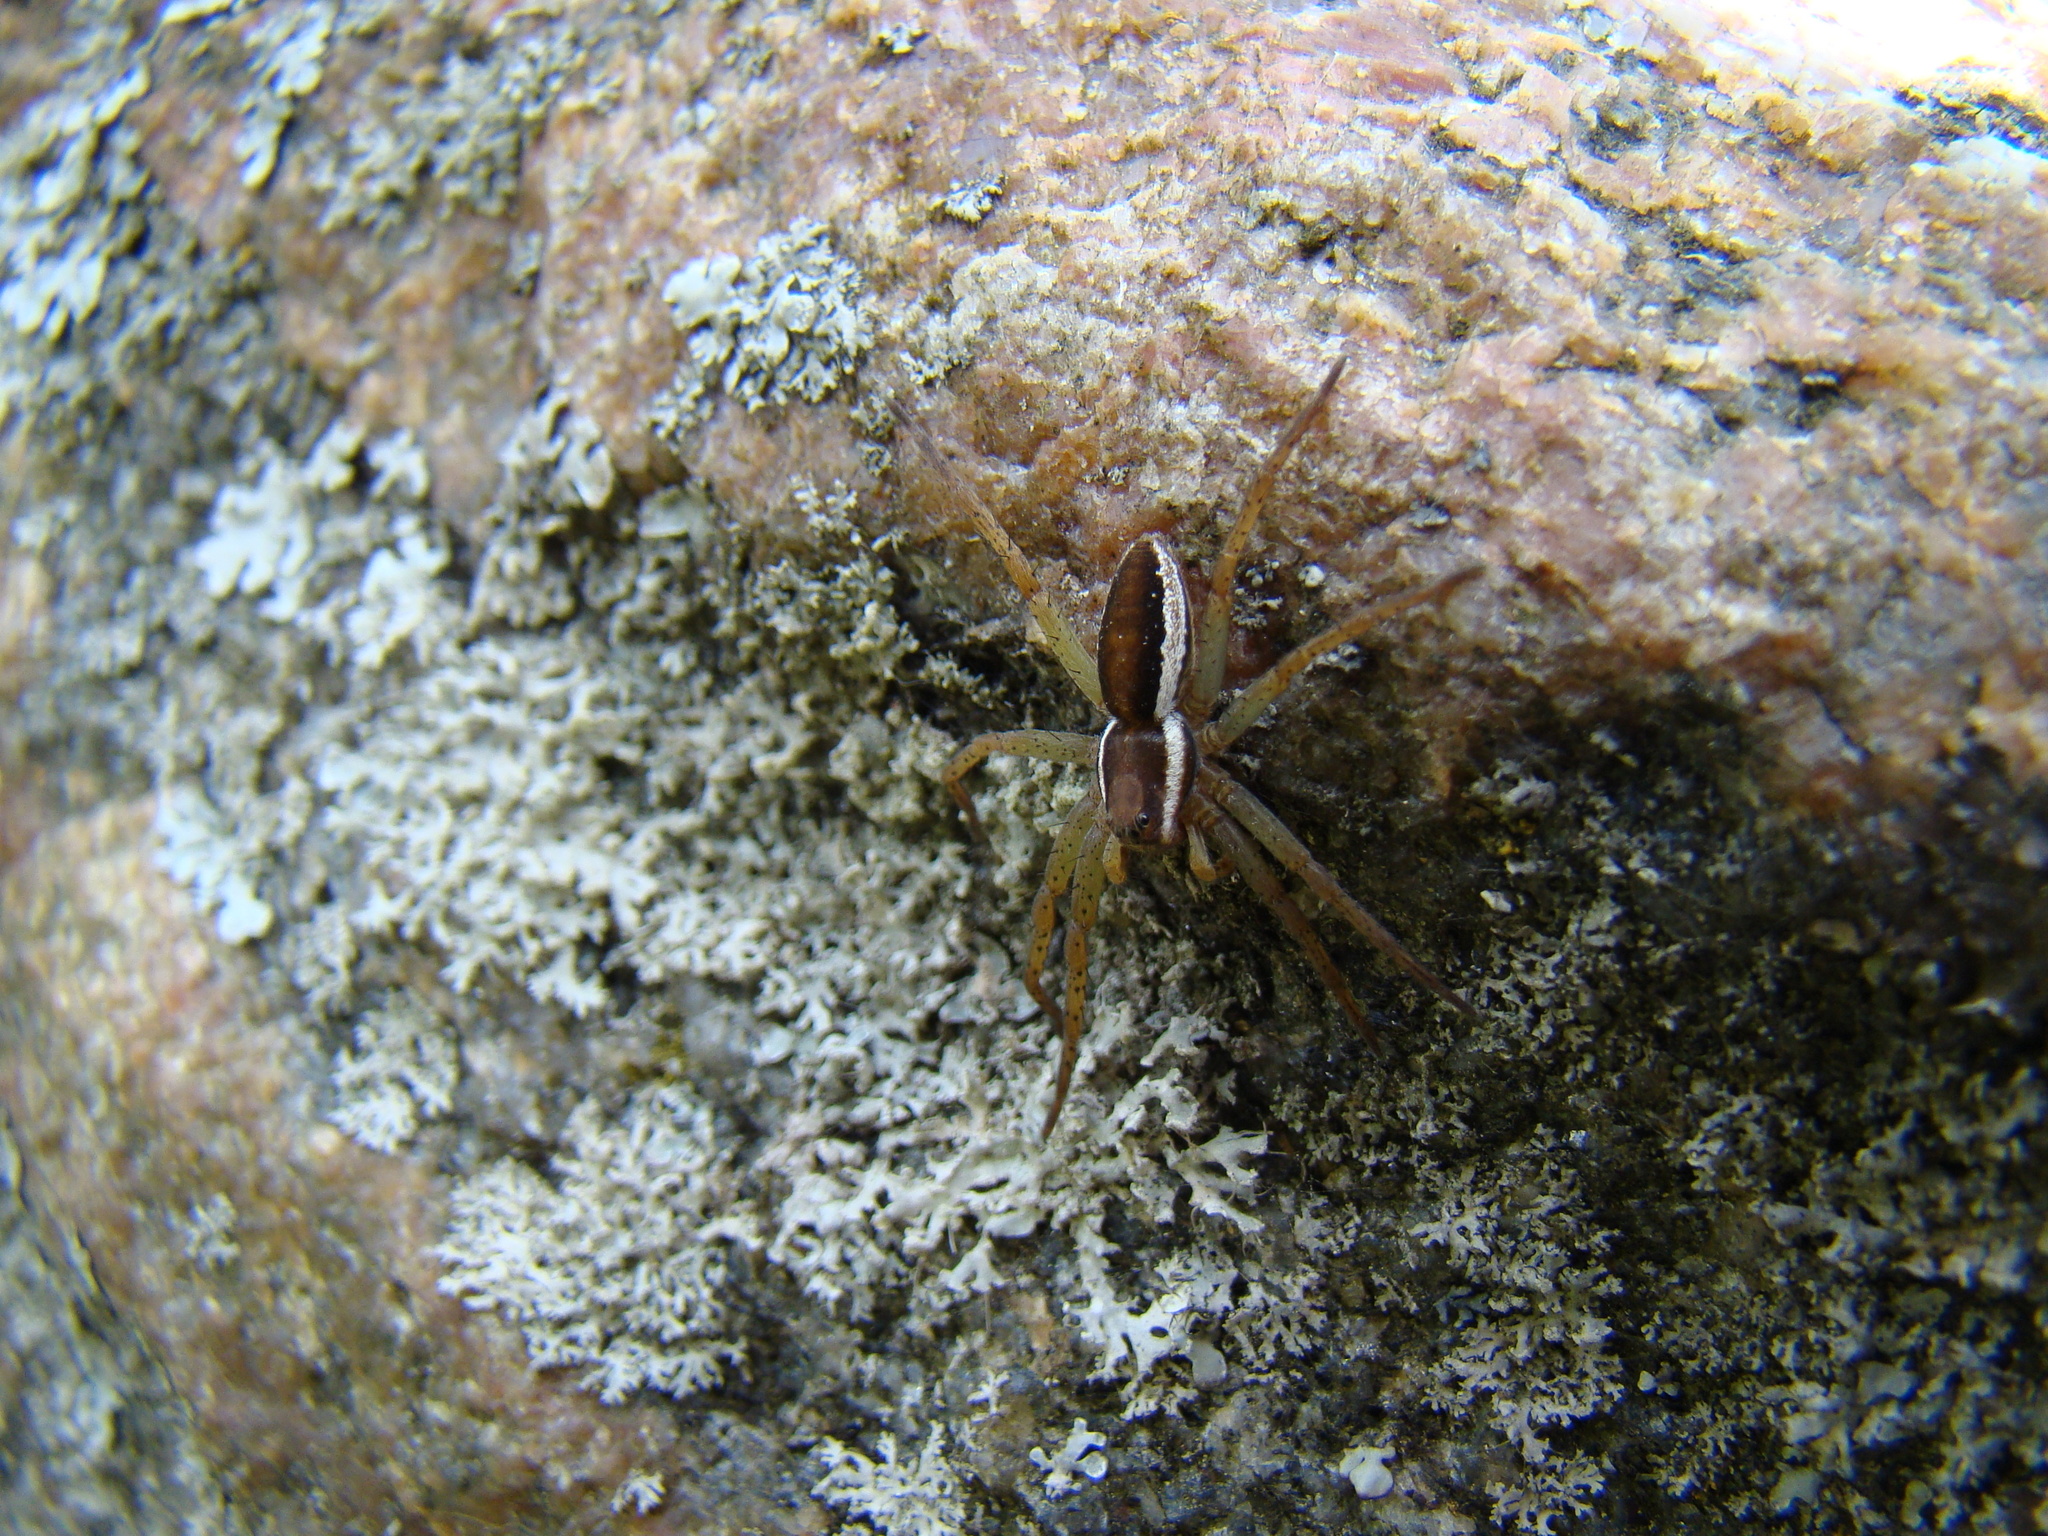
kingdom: Animalia
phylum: Arthropoda
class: Arachnida
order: Araneae
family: Pisauridae
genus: Dolomedes
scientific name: Dolomedes fimbriatus
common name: Raft spider
